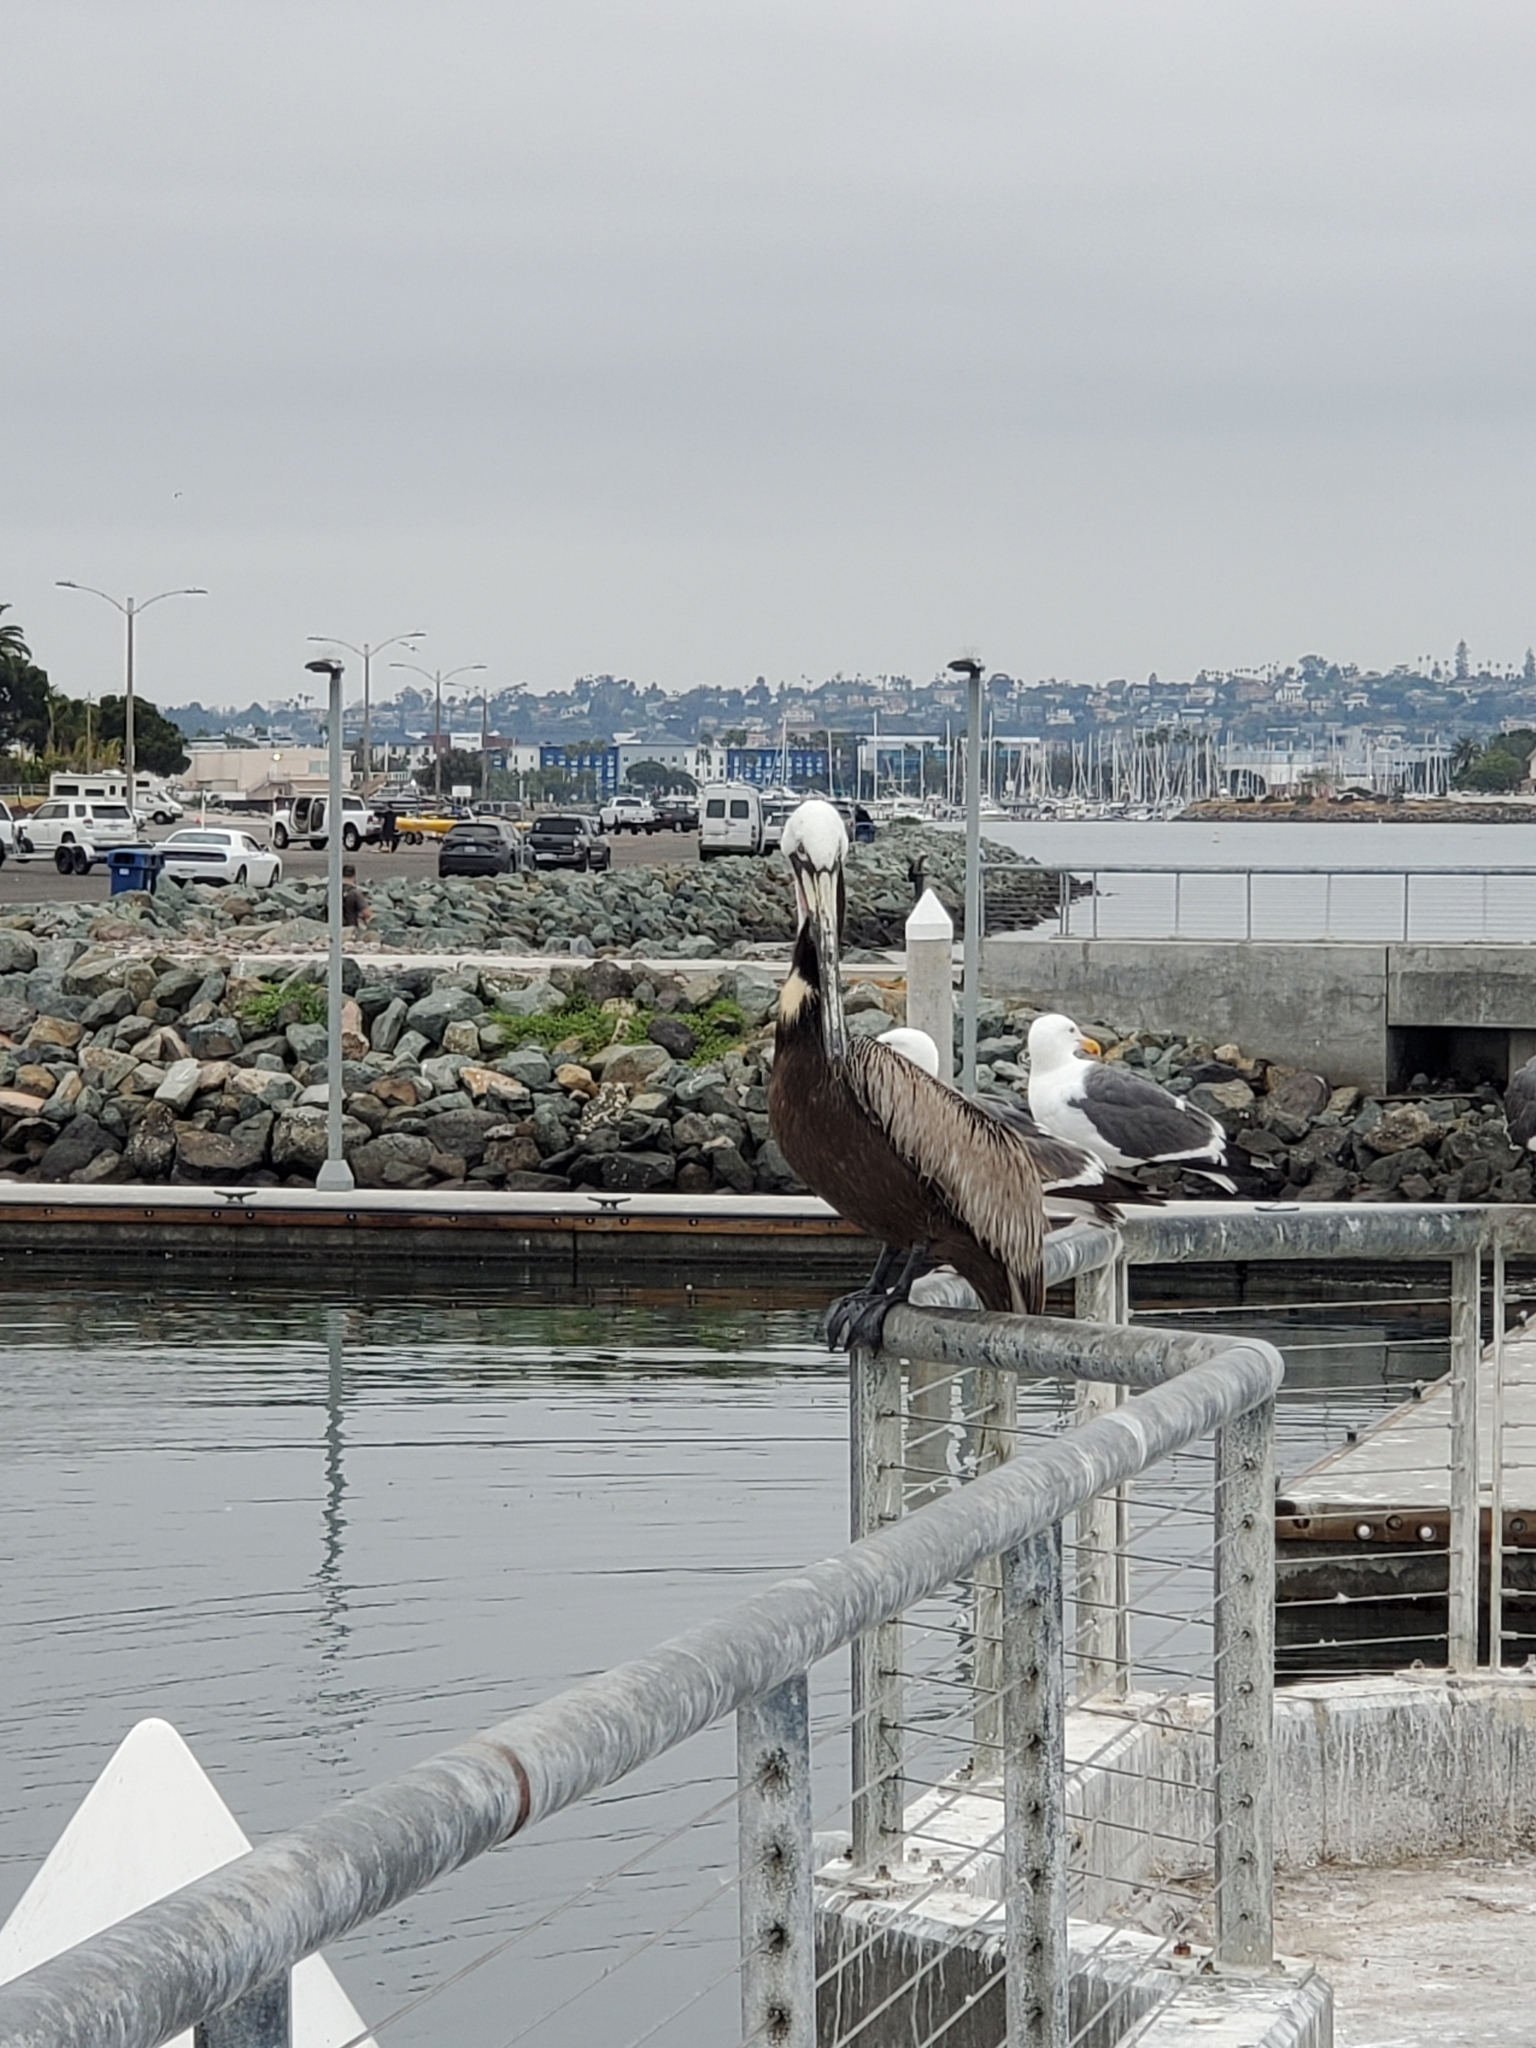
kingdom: Animalia
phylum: Chordata
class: Aves
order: Pelecaniformes
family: Pelecanidae
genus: Pelecanus
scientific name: Pelecanus occidentalis
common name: Brown pelican
